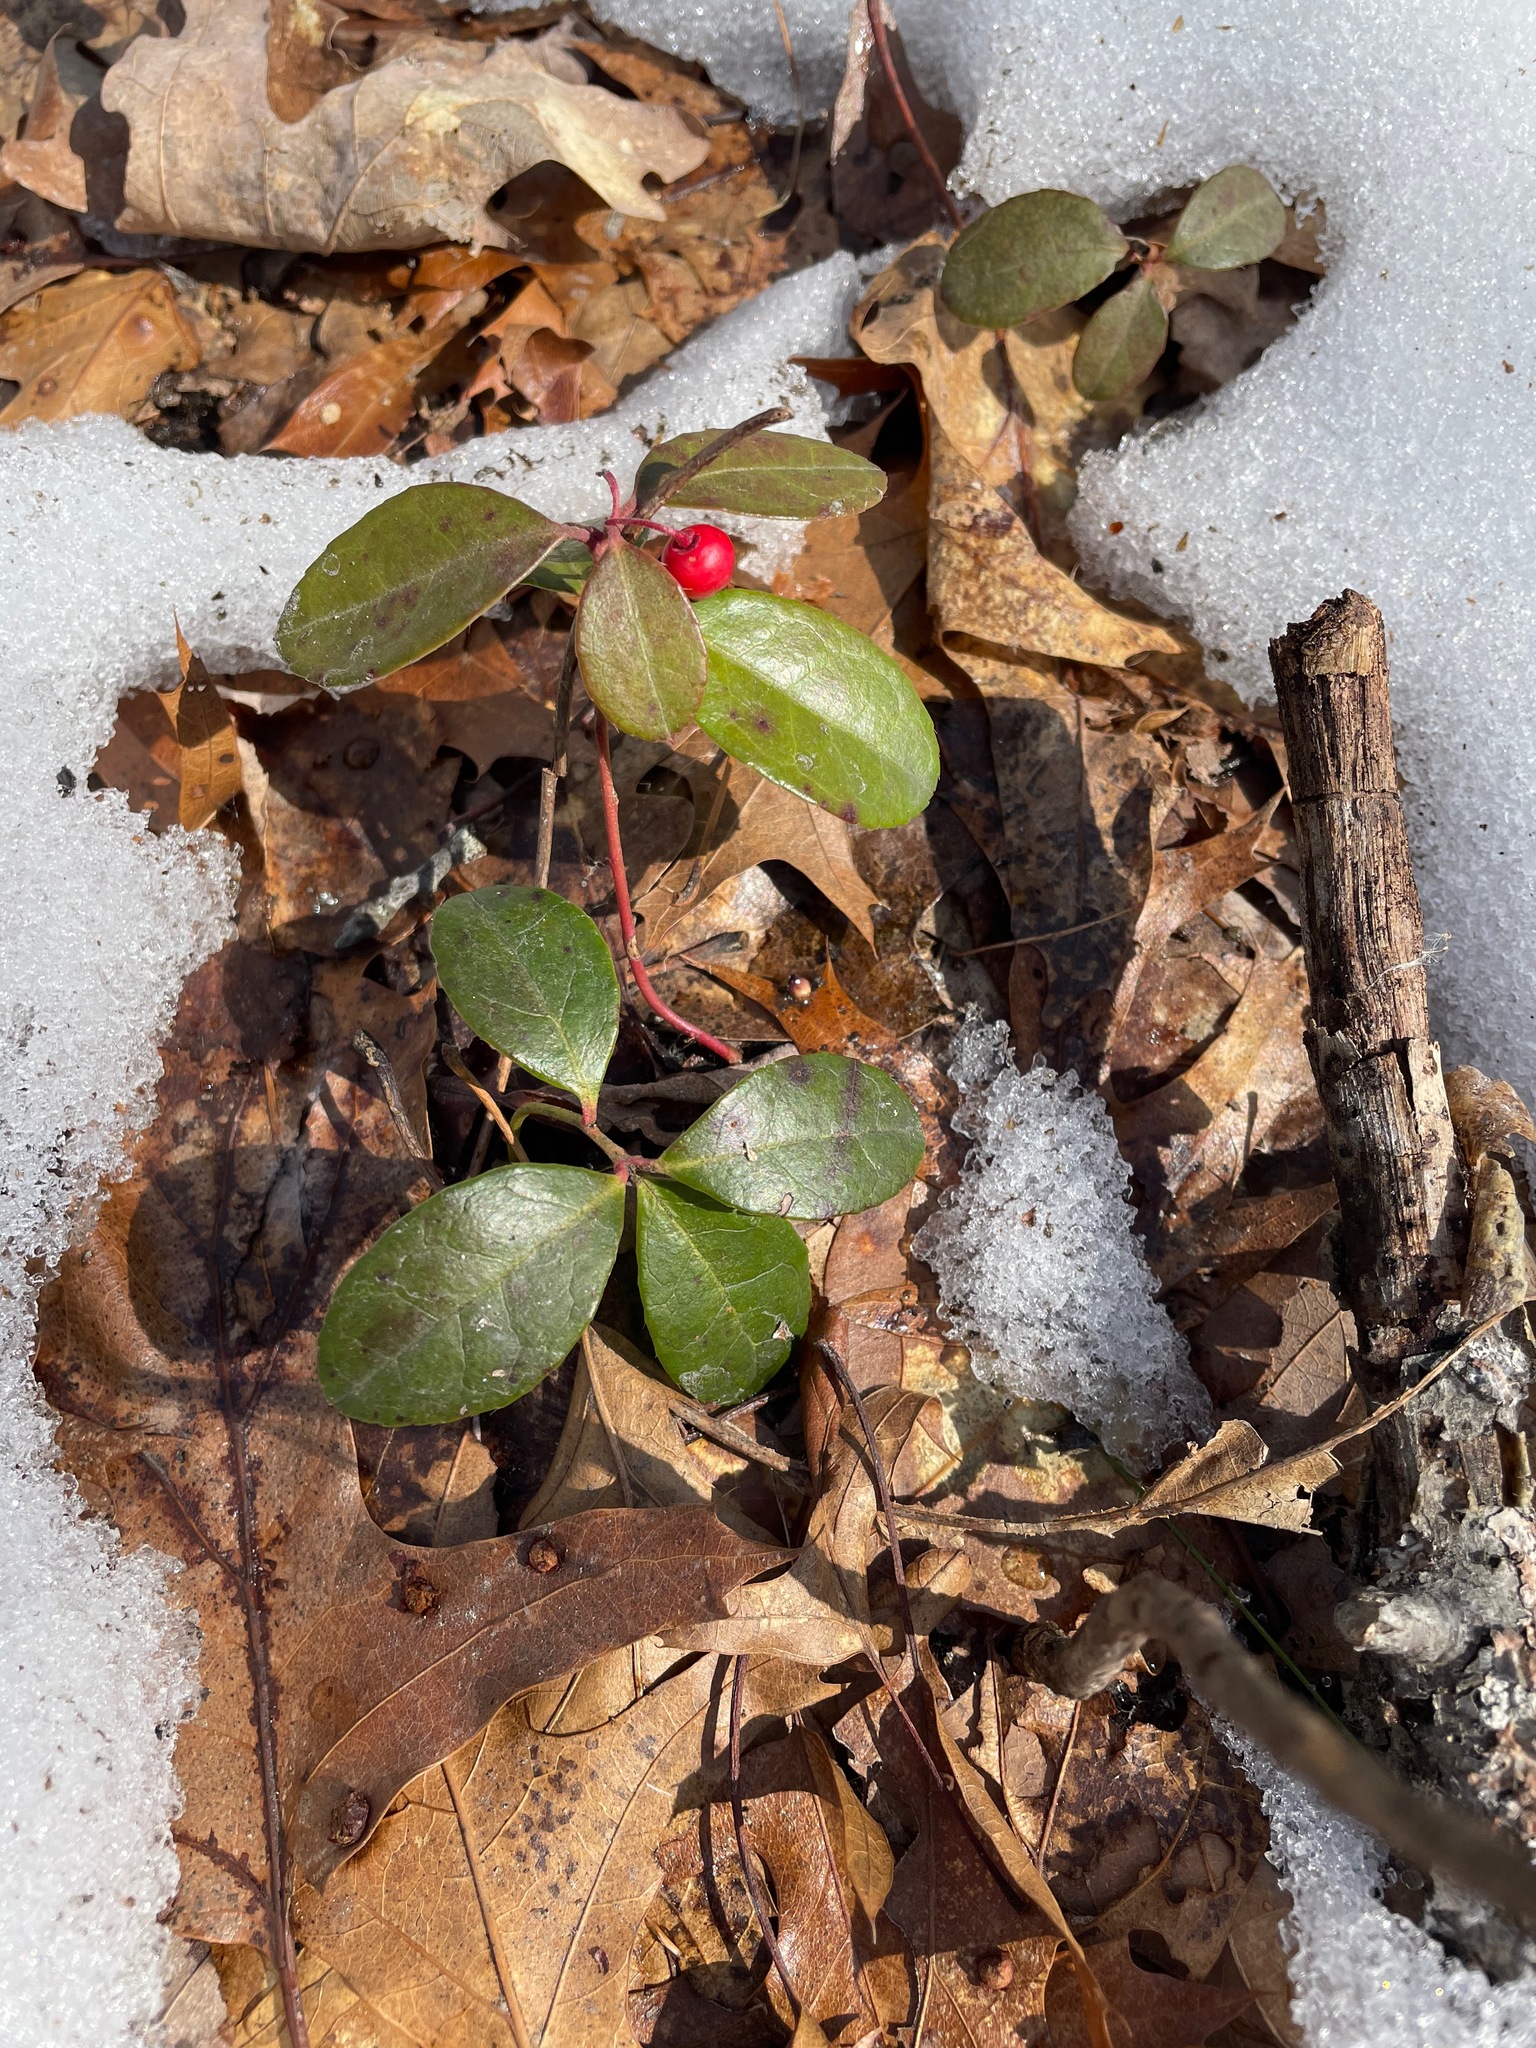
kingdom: Plantae
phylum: Tracheophyta
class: Magnoliopsida
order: Ericales
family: Ericaceae
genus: Gaultheria
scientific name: Gaultheria procumbens
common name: Checkerberry
